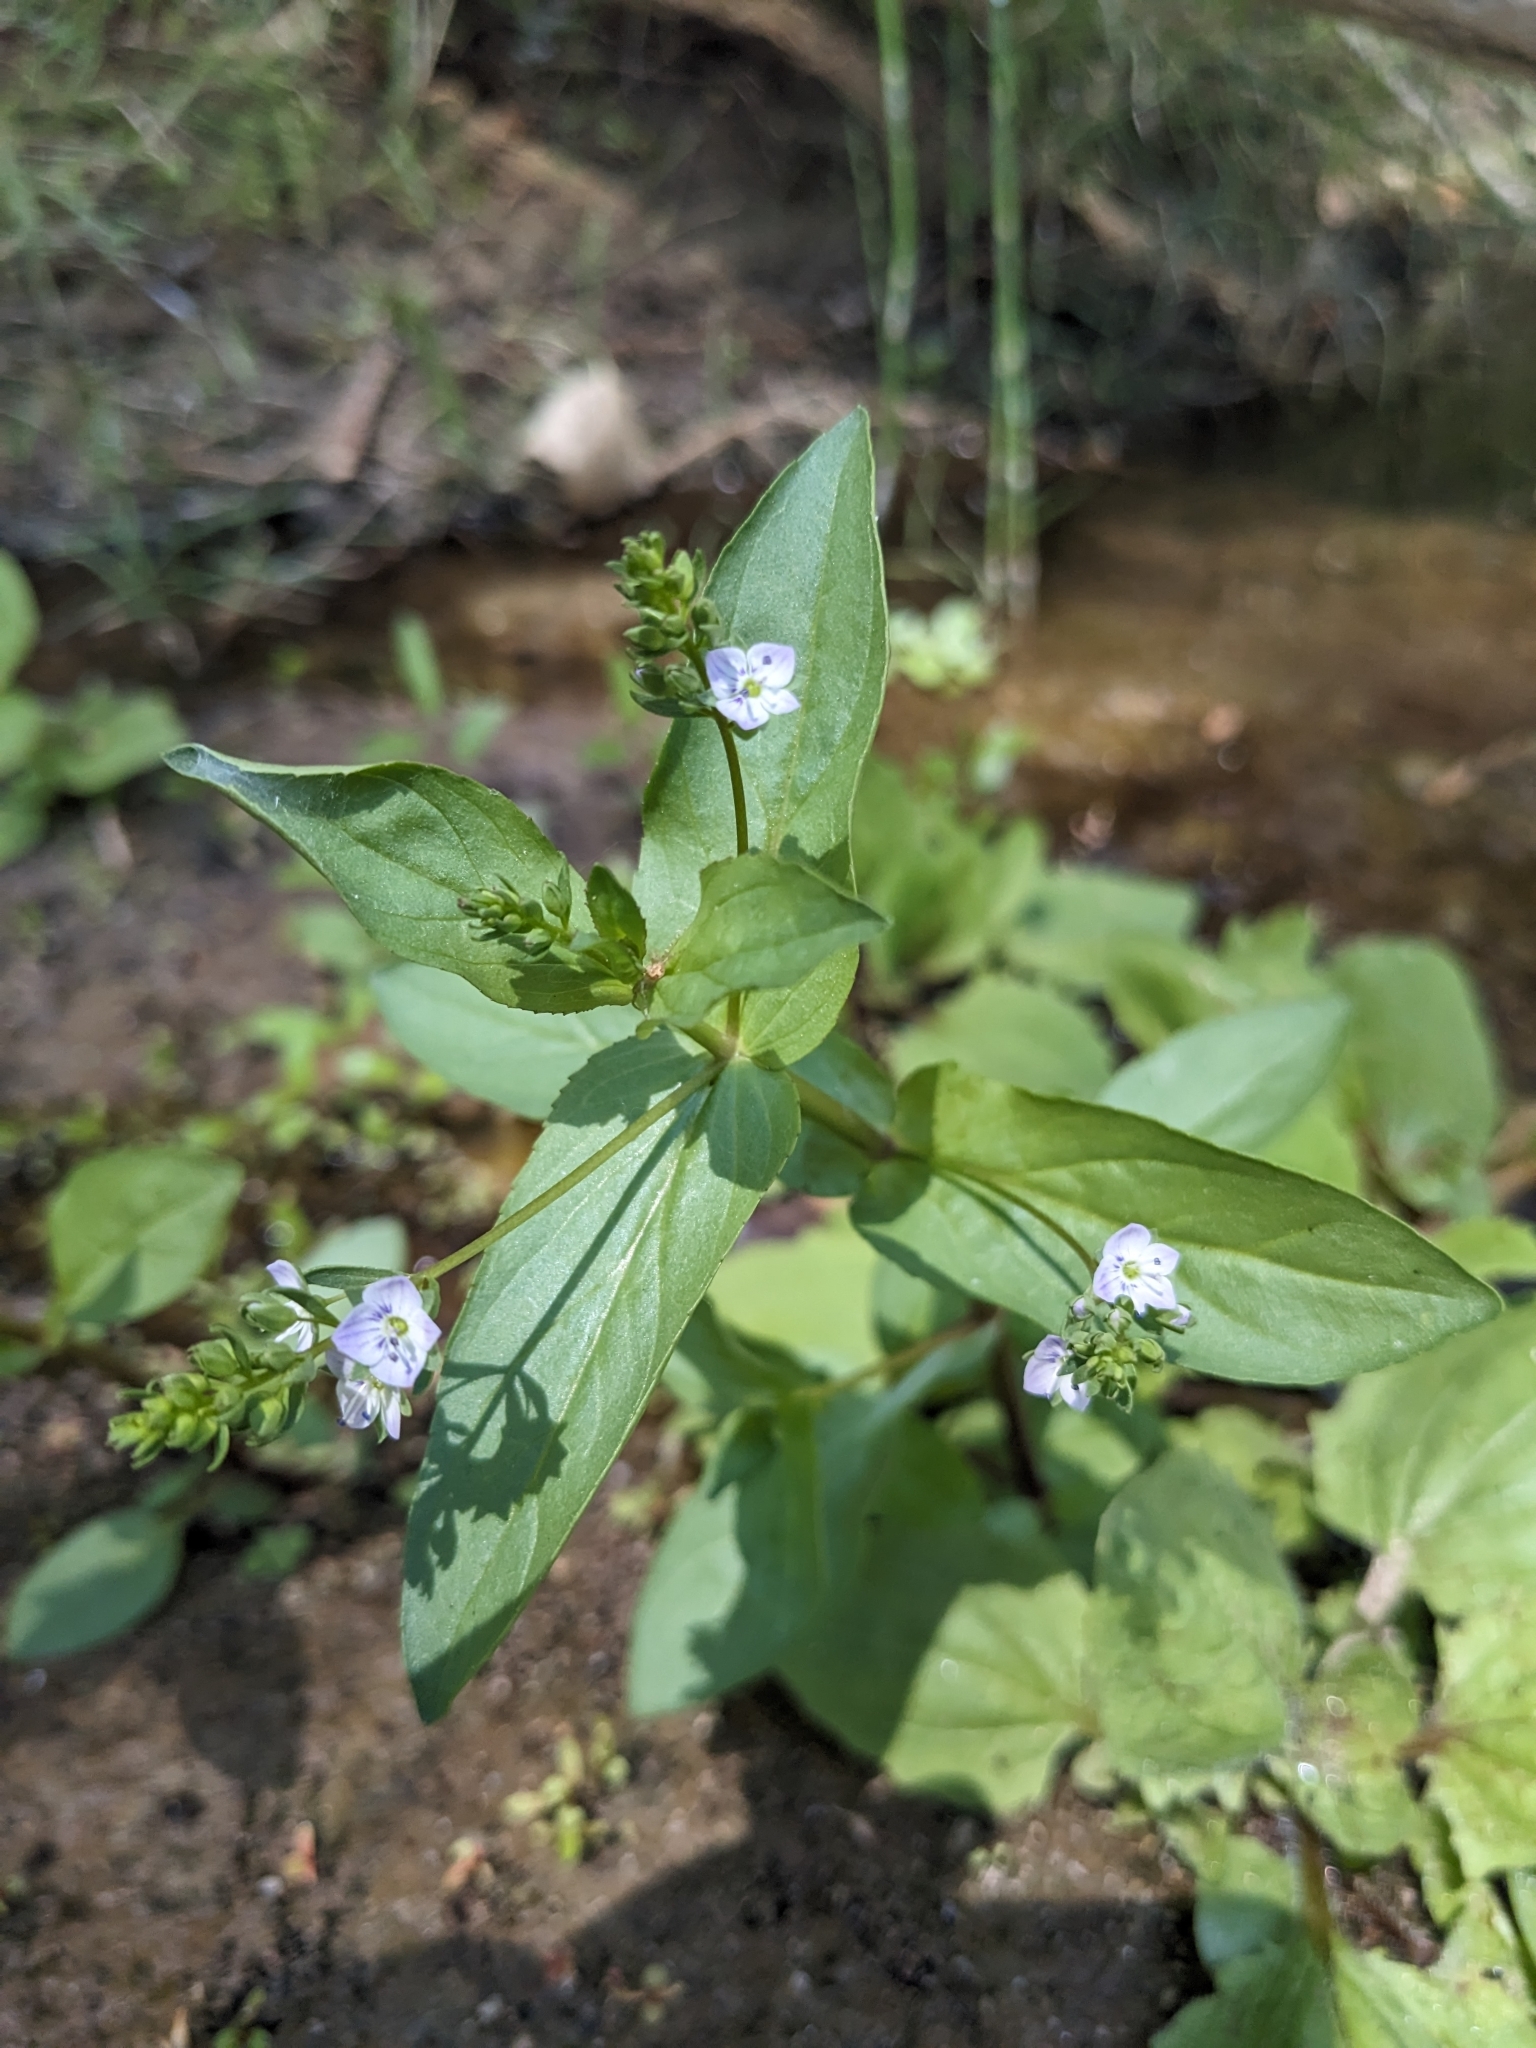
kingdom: Plantae
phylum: Tracheophyta
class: Magnoliopsida
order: Lamiales
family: Plantaginaceae
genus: Veronica
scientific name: Veronica anagallis-aquatica
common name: Water speedwell
